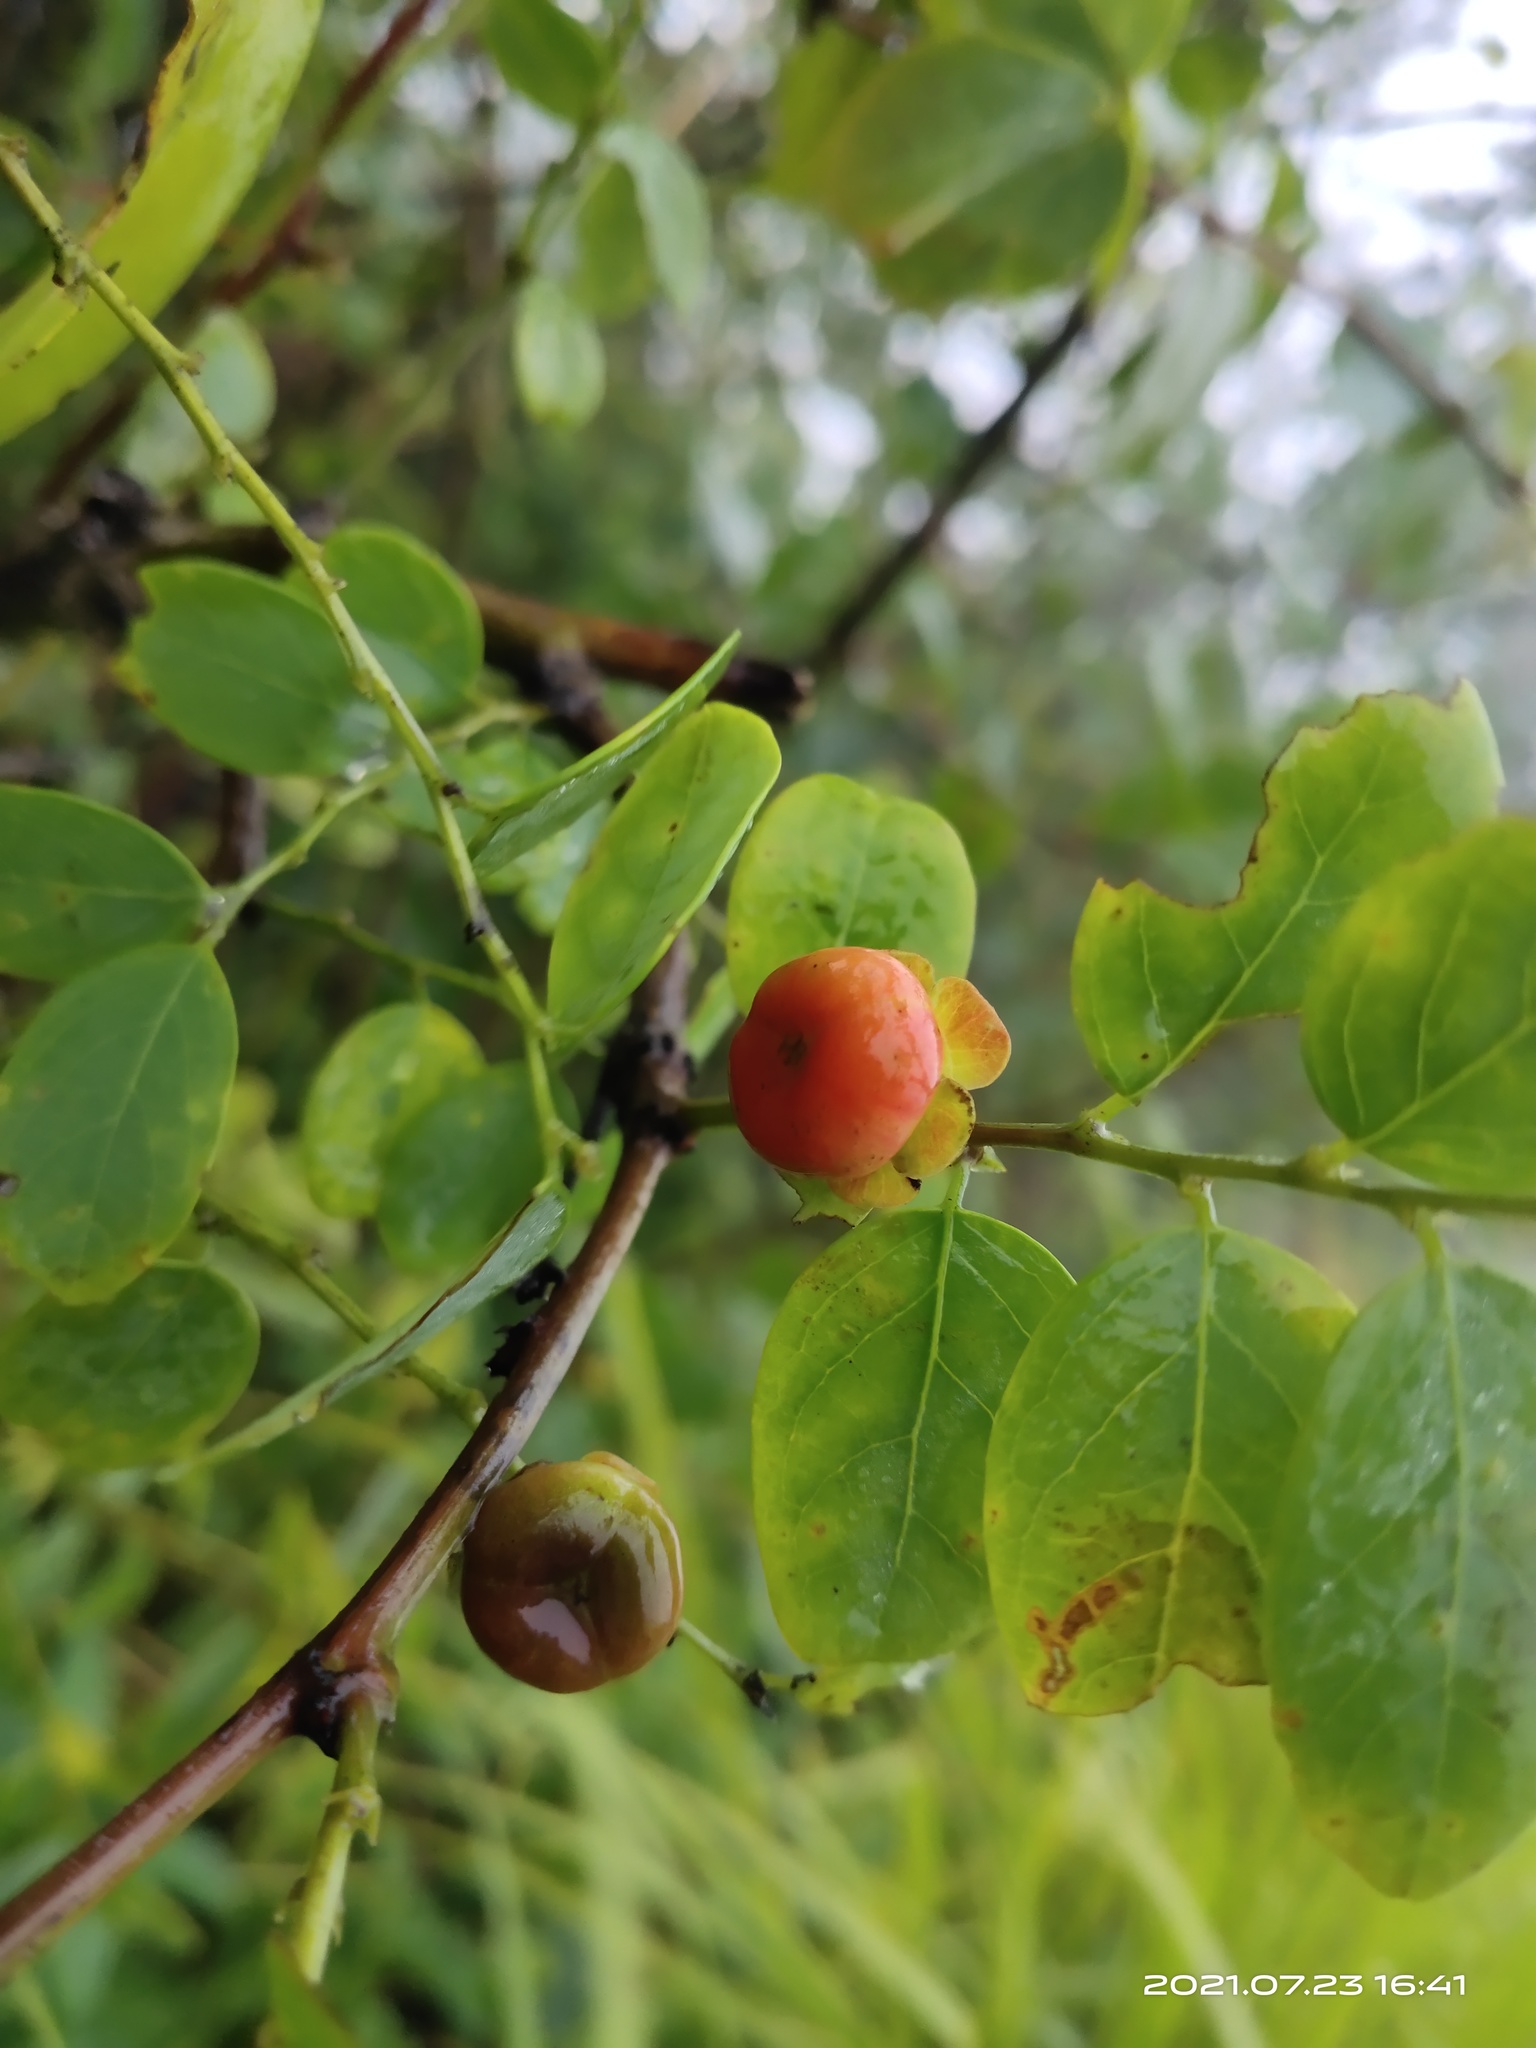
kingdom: Plantae
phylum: Tracheophyta
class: Magnoliopsida
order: Malpighiales
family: Phyllanthaceae
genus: Breynia
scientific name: Breynia retusa
